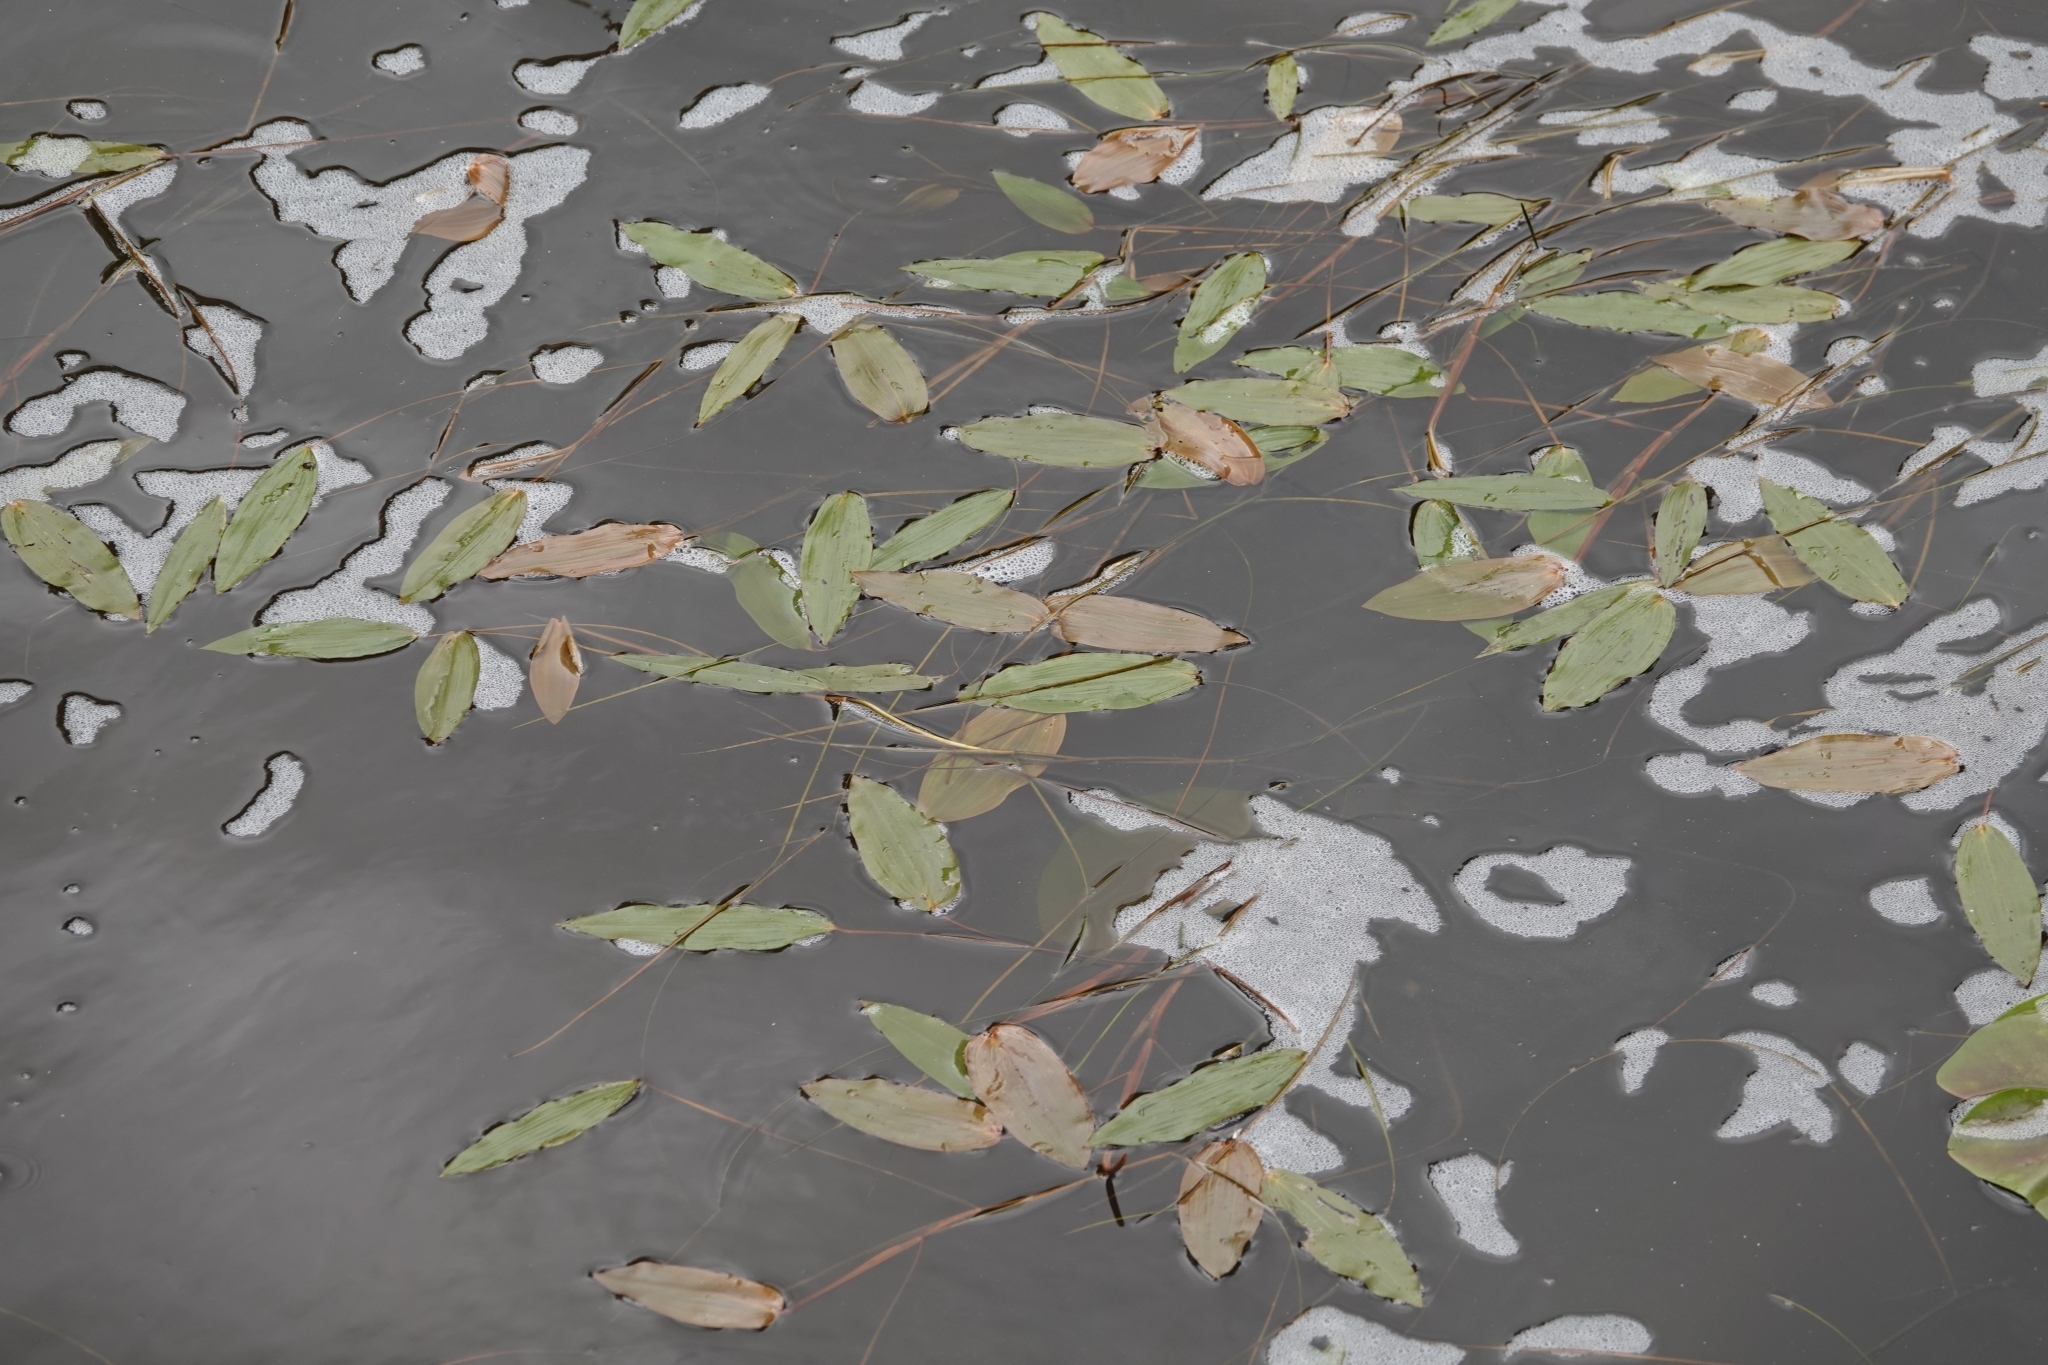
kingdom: Plantae
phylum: Tracheophyta
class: Liliopsida
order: Alismatales
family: Potamogetonaceae
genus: Potamogeton
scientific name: Potamogeton natans
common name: Broad-leaved pondweed
